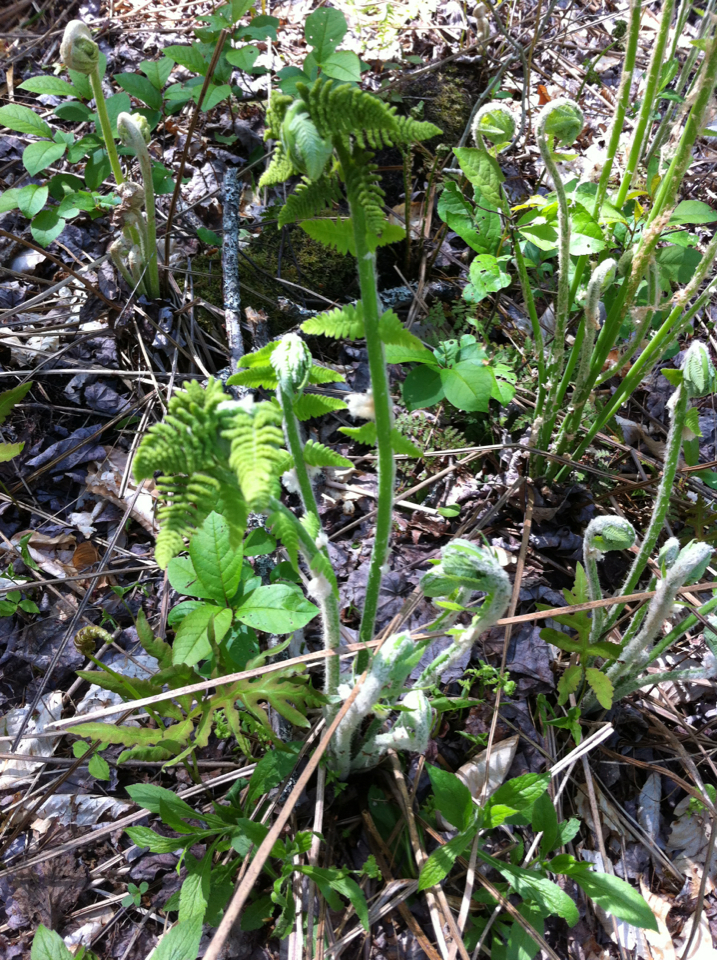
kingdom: Plantae
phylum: Tracheophyta
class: Polypodiopsida
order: Osmundales
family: Osmundaceae
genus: Claytosmunda
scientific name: Claytosmunda claytoniana
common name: Clayton's fern
